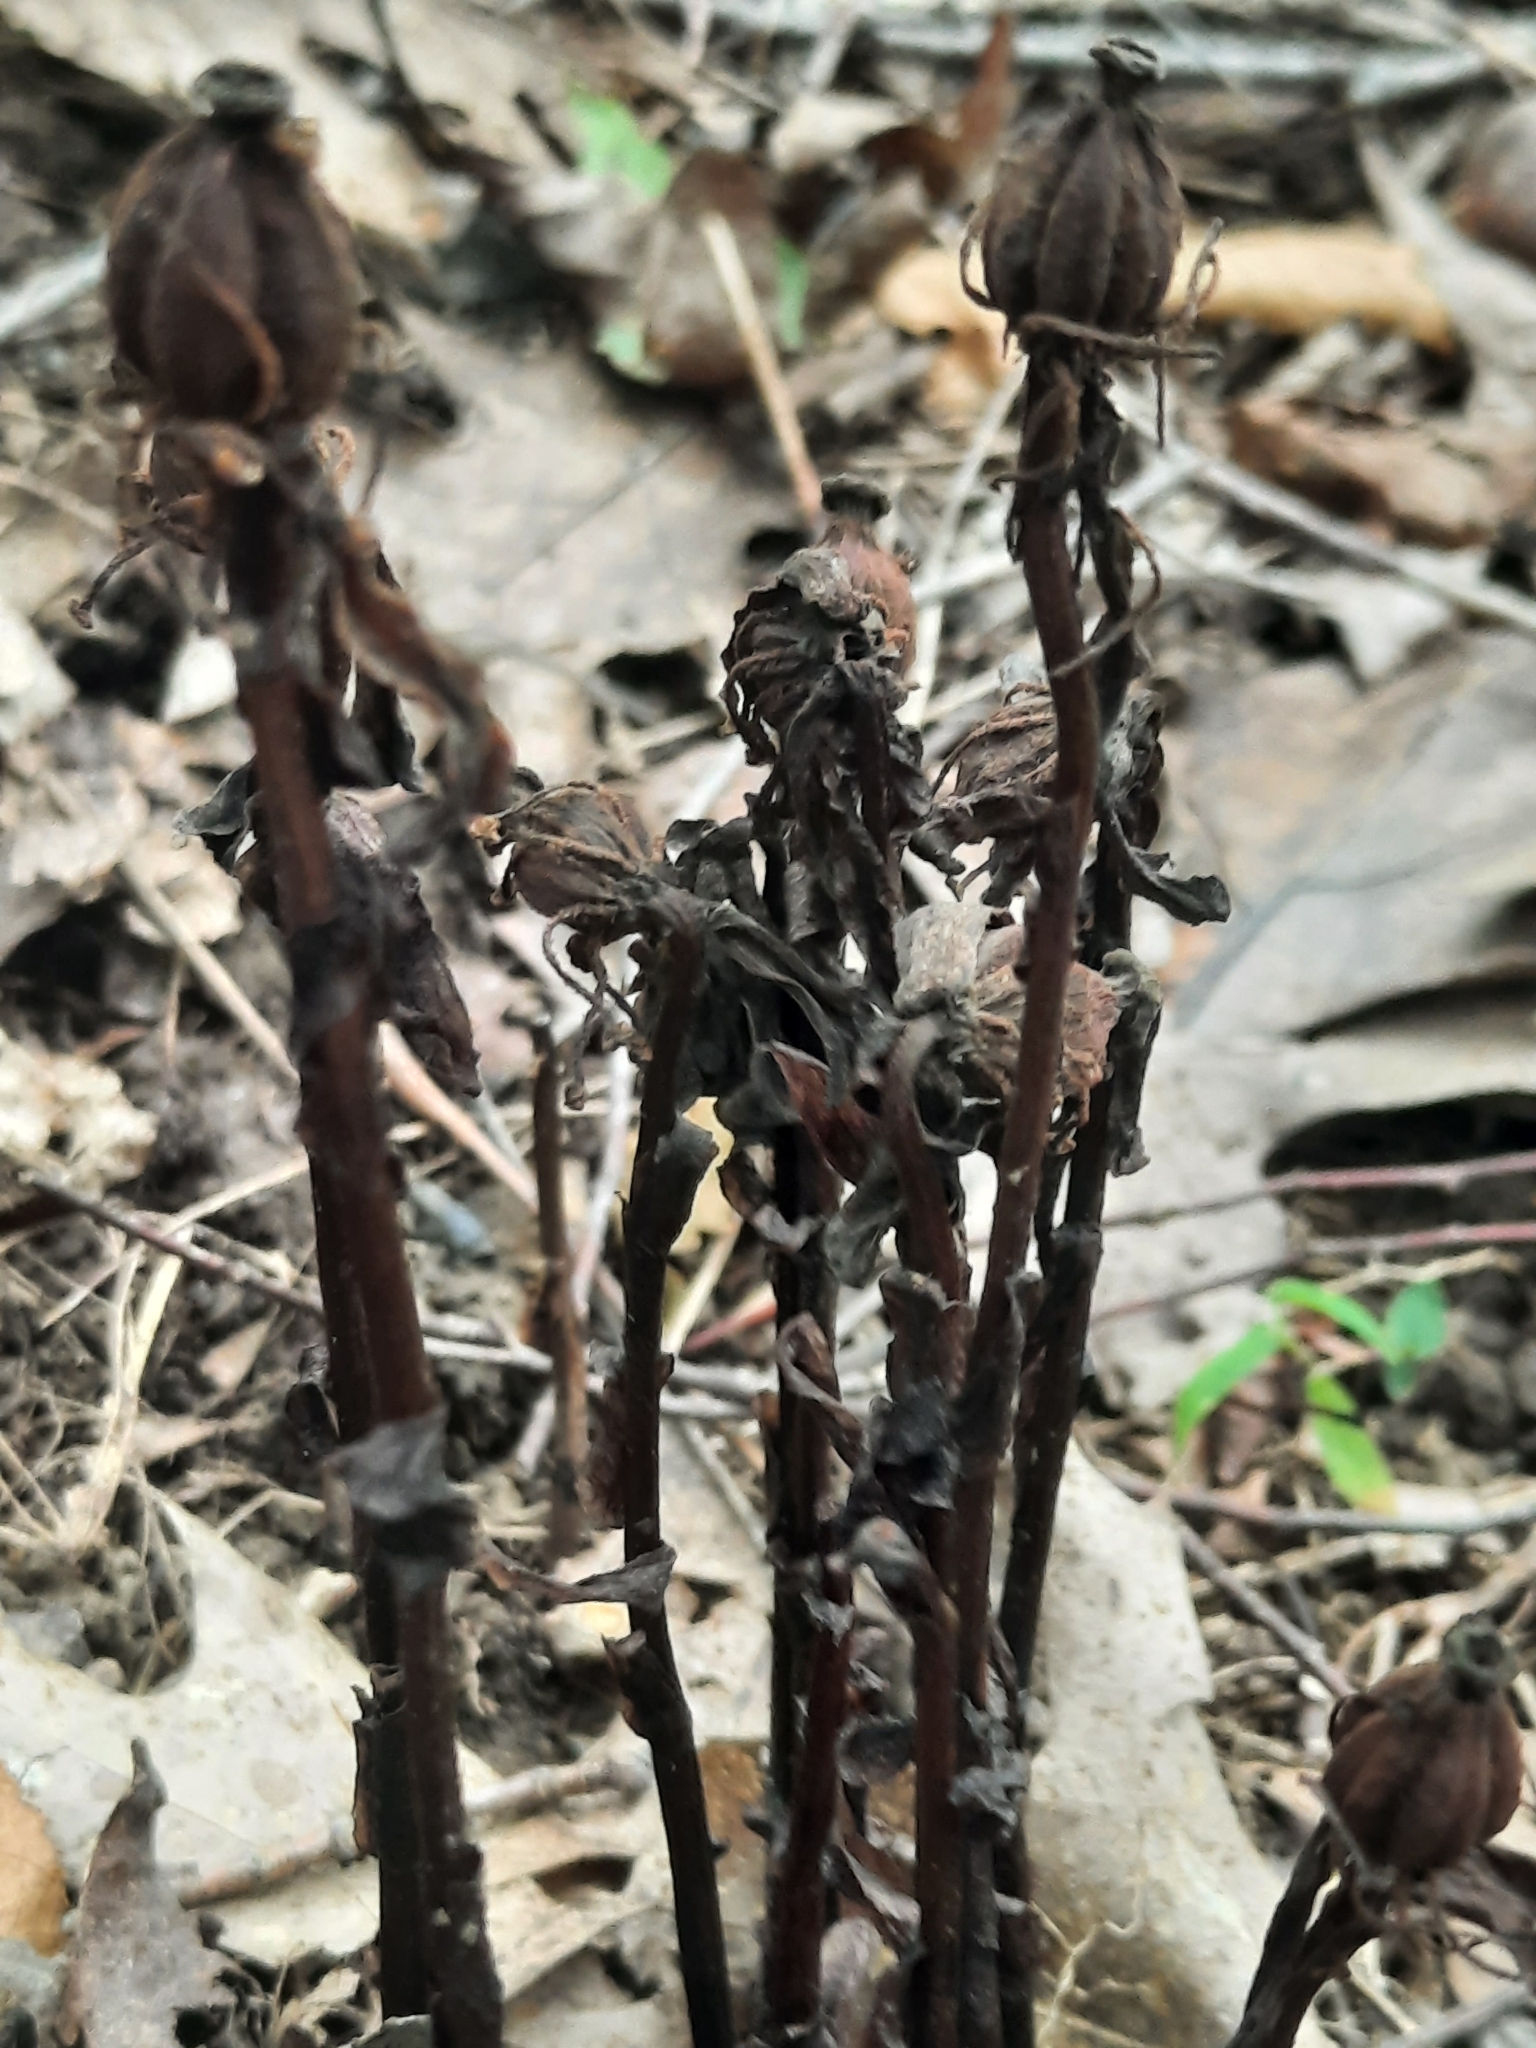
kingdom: Plantae
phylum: Tracheophyta
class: Magnoliopsida
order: Ericales
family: Ericaceae
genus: Monotropa
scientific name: Monotropa uniflora
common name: Convulsion root
